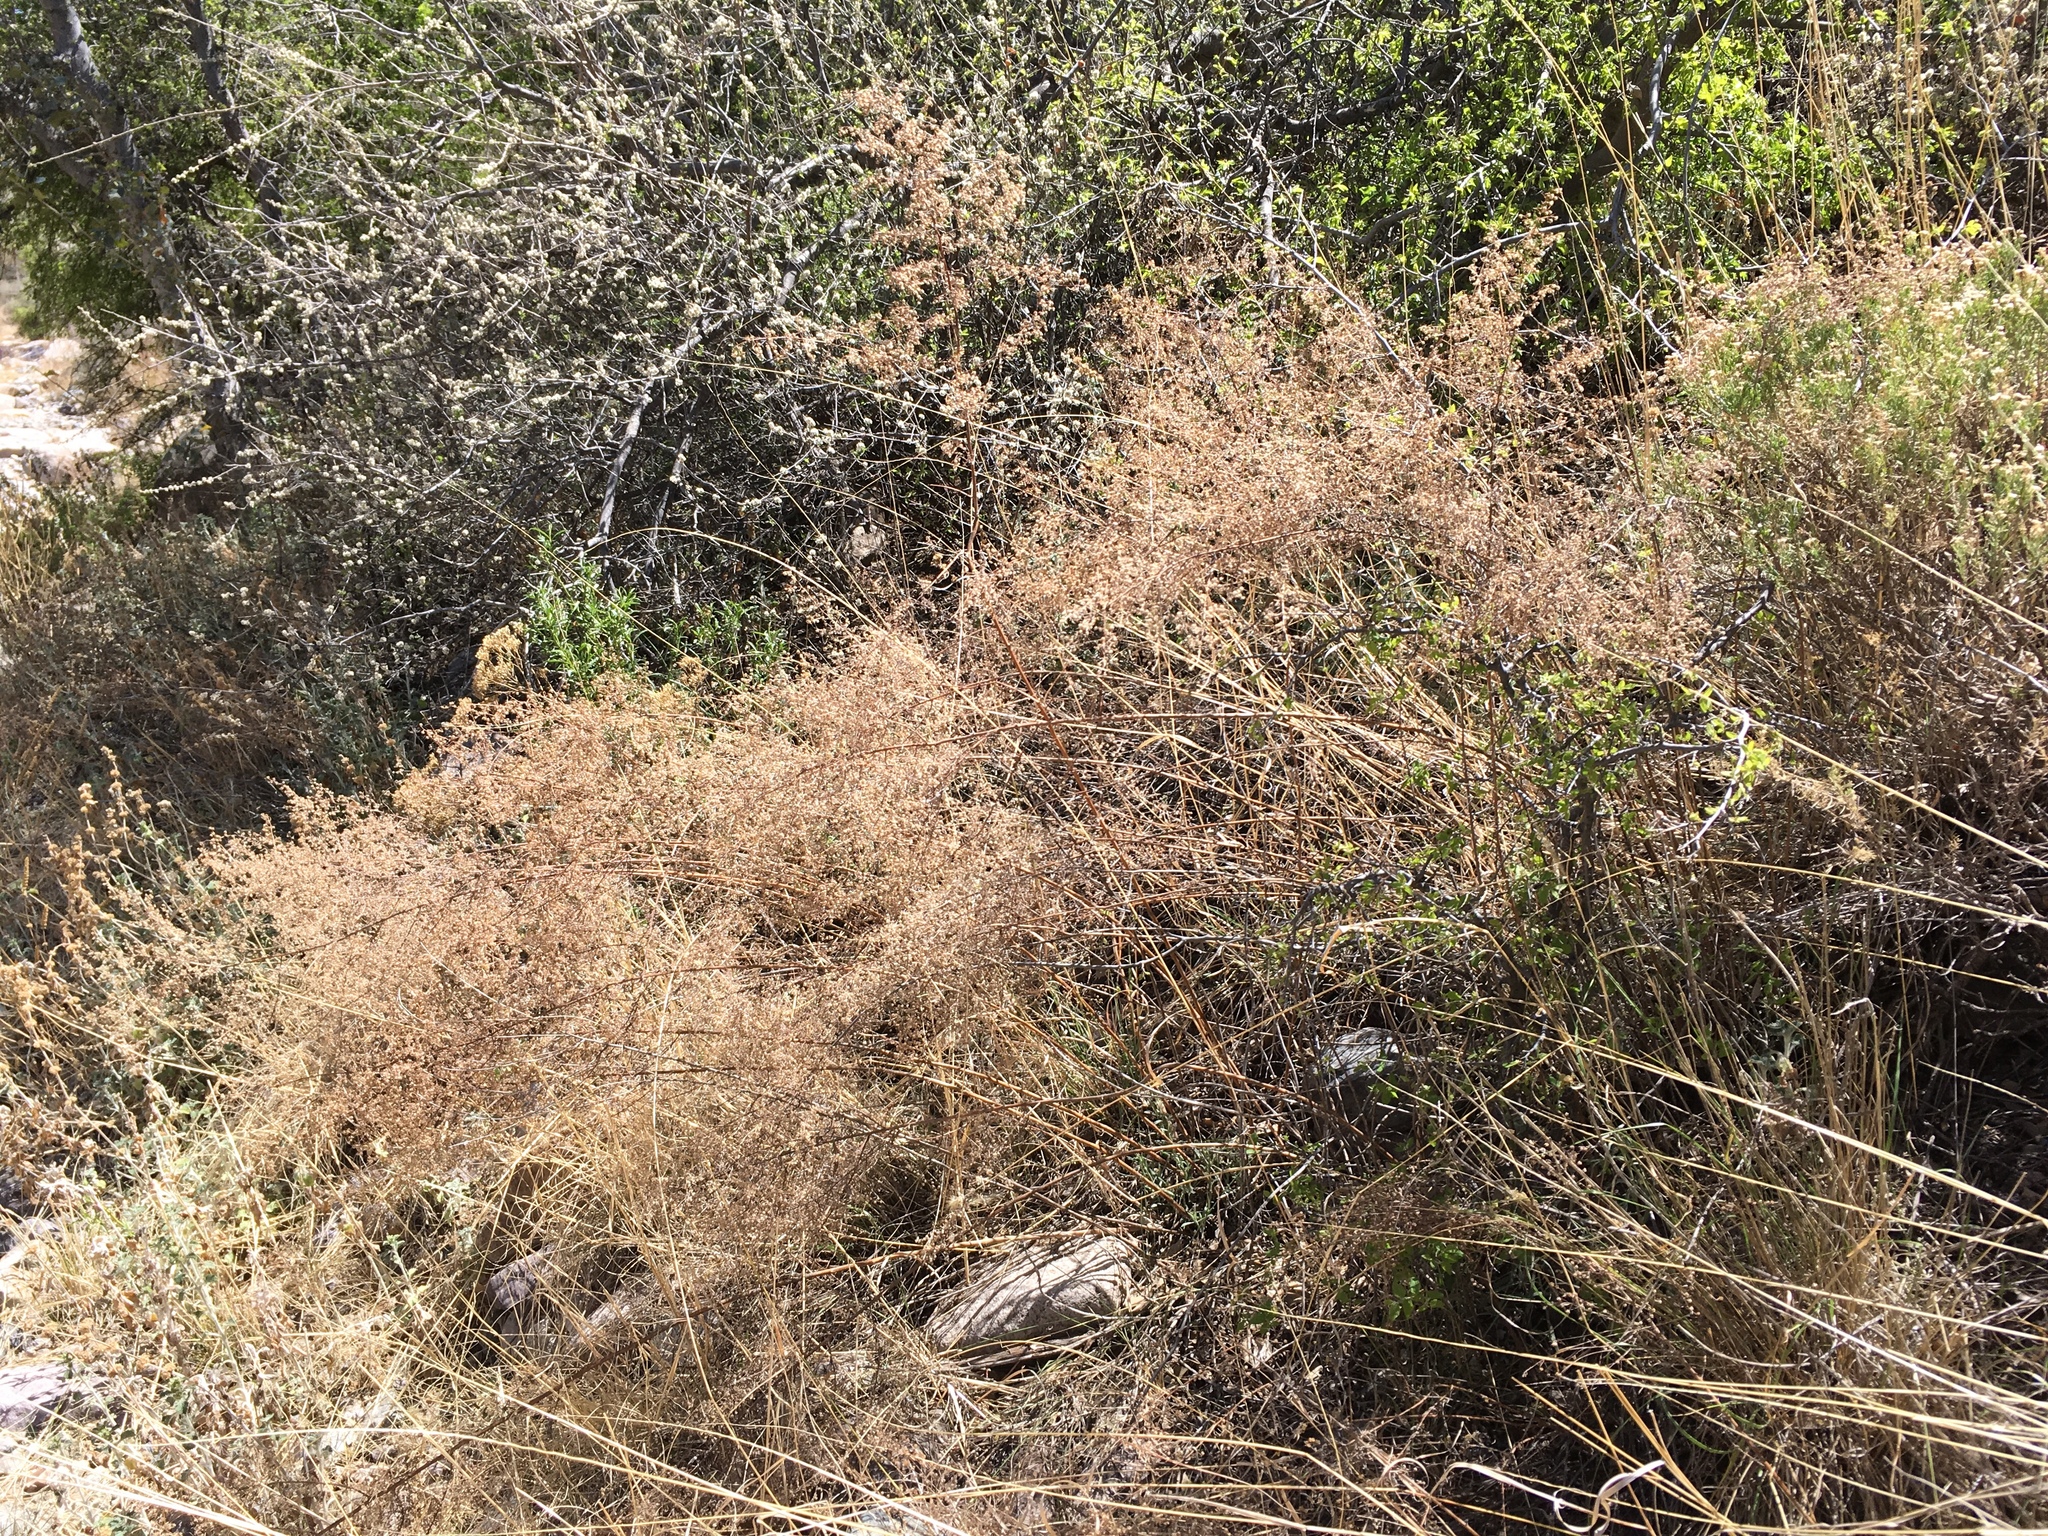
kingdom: Plantae
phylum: Tracheophyta
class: Magnoliopsida
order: Asterales
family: Asteraceae
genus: Artemisia
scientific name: Artemisia dracunculus
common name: Tarragon
